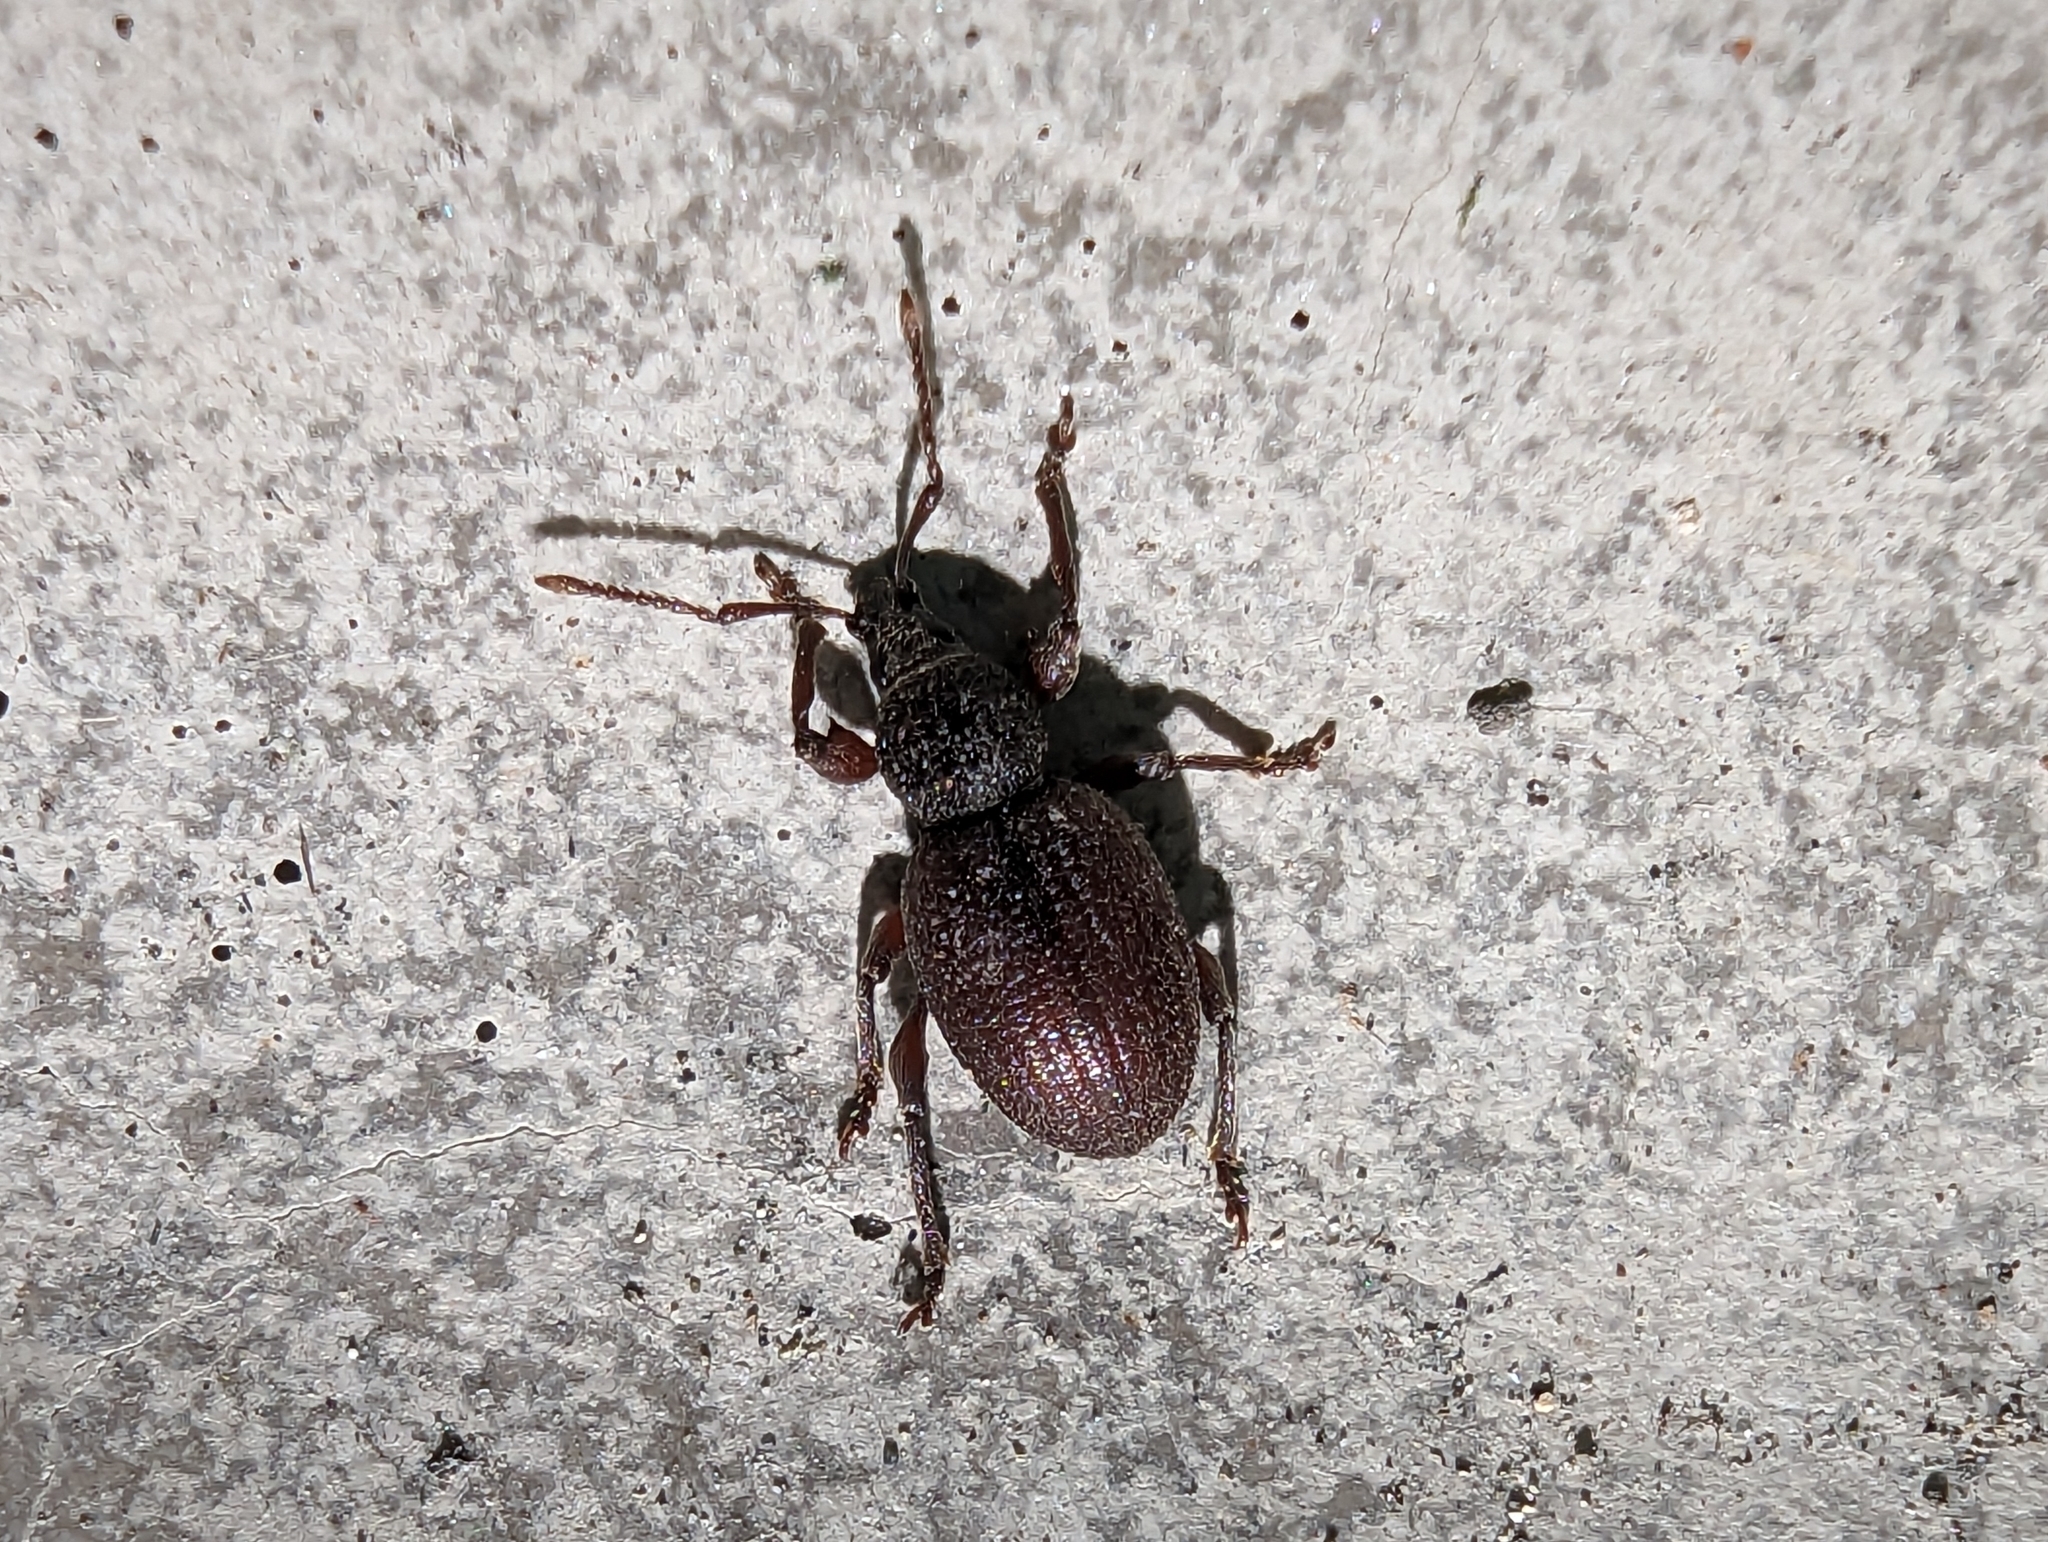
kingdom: Animalia
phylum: Arthropoda
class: Insecta
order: Coleoptera
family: Curculionidae
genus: Otiorhynchus
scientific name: Otiorhynchus ovatus
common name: Strawberry root weevil
